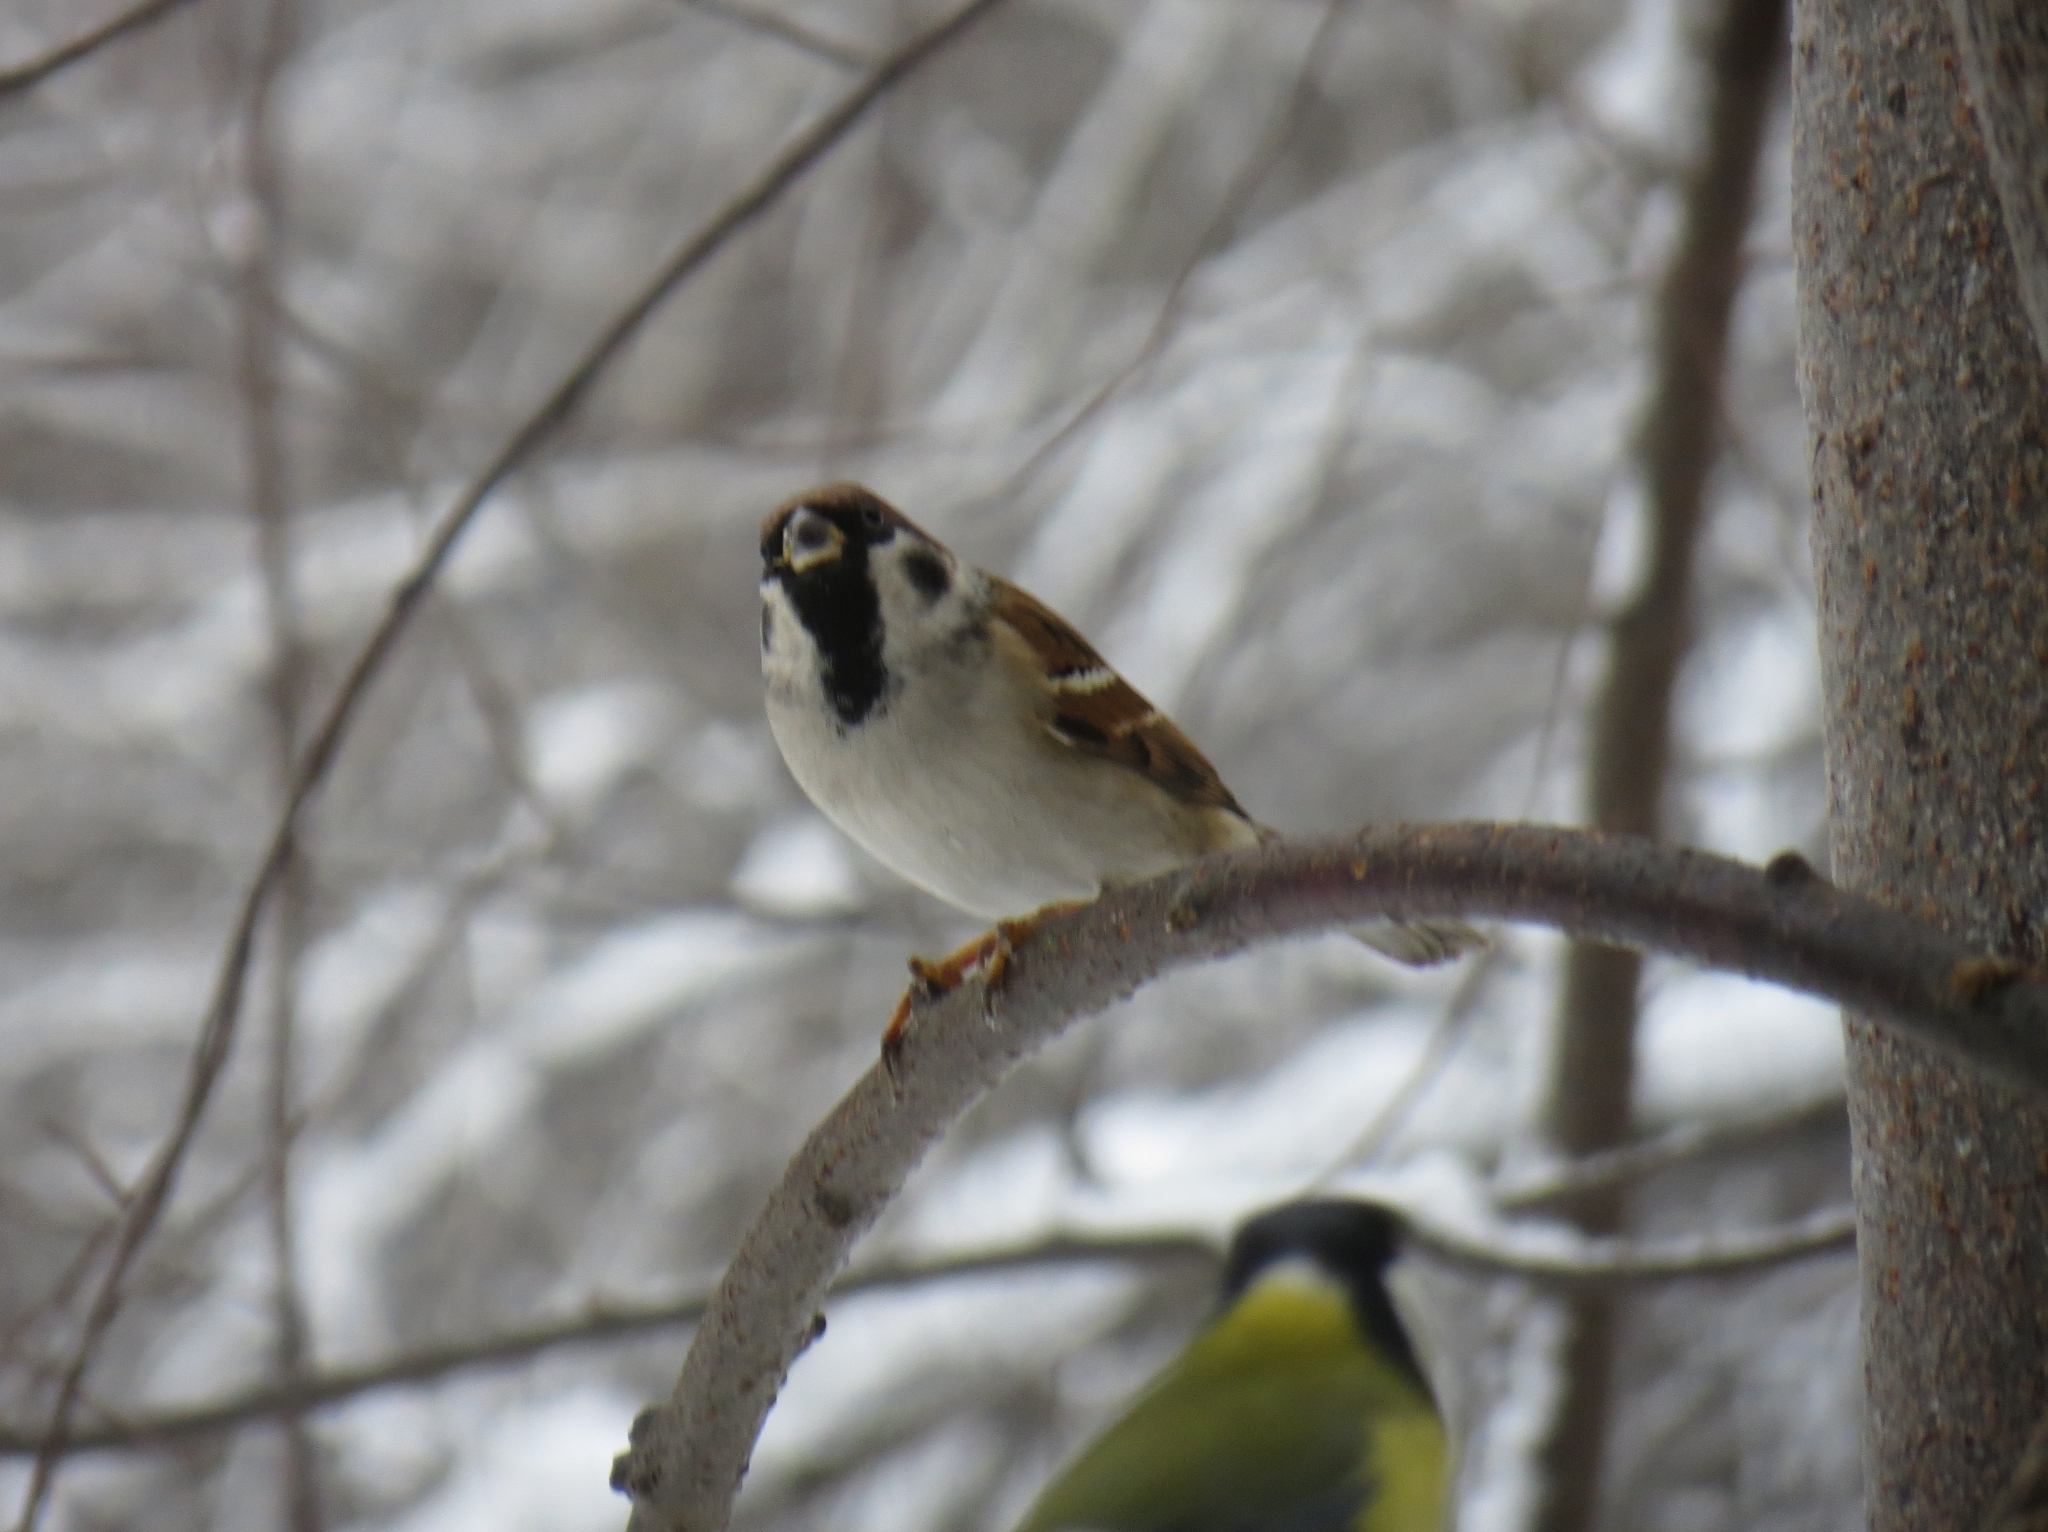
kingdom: Animalia
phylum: Chordata
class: Aves
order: Passeriformes
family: Passeridae
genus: Passer
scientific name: Passer montanus
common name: Eurasian tree sparrow
